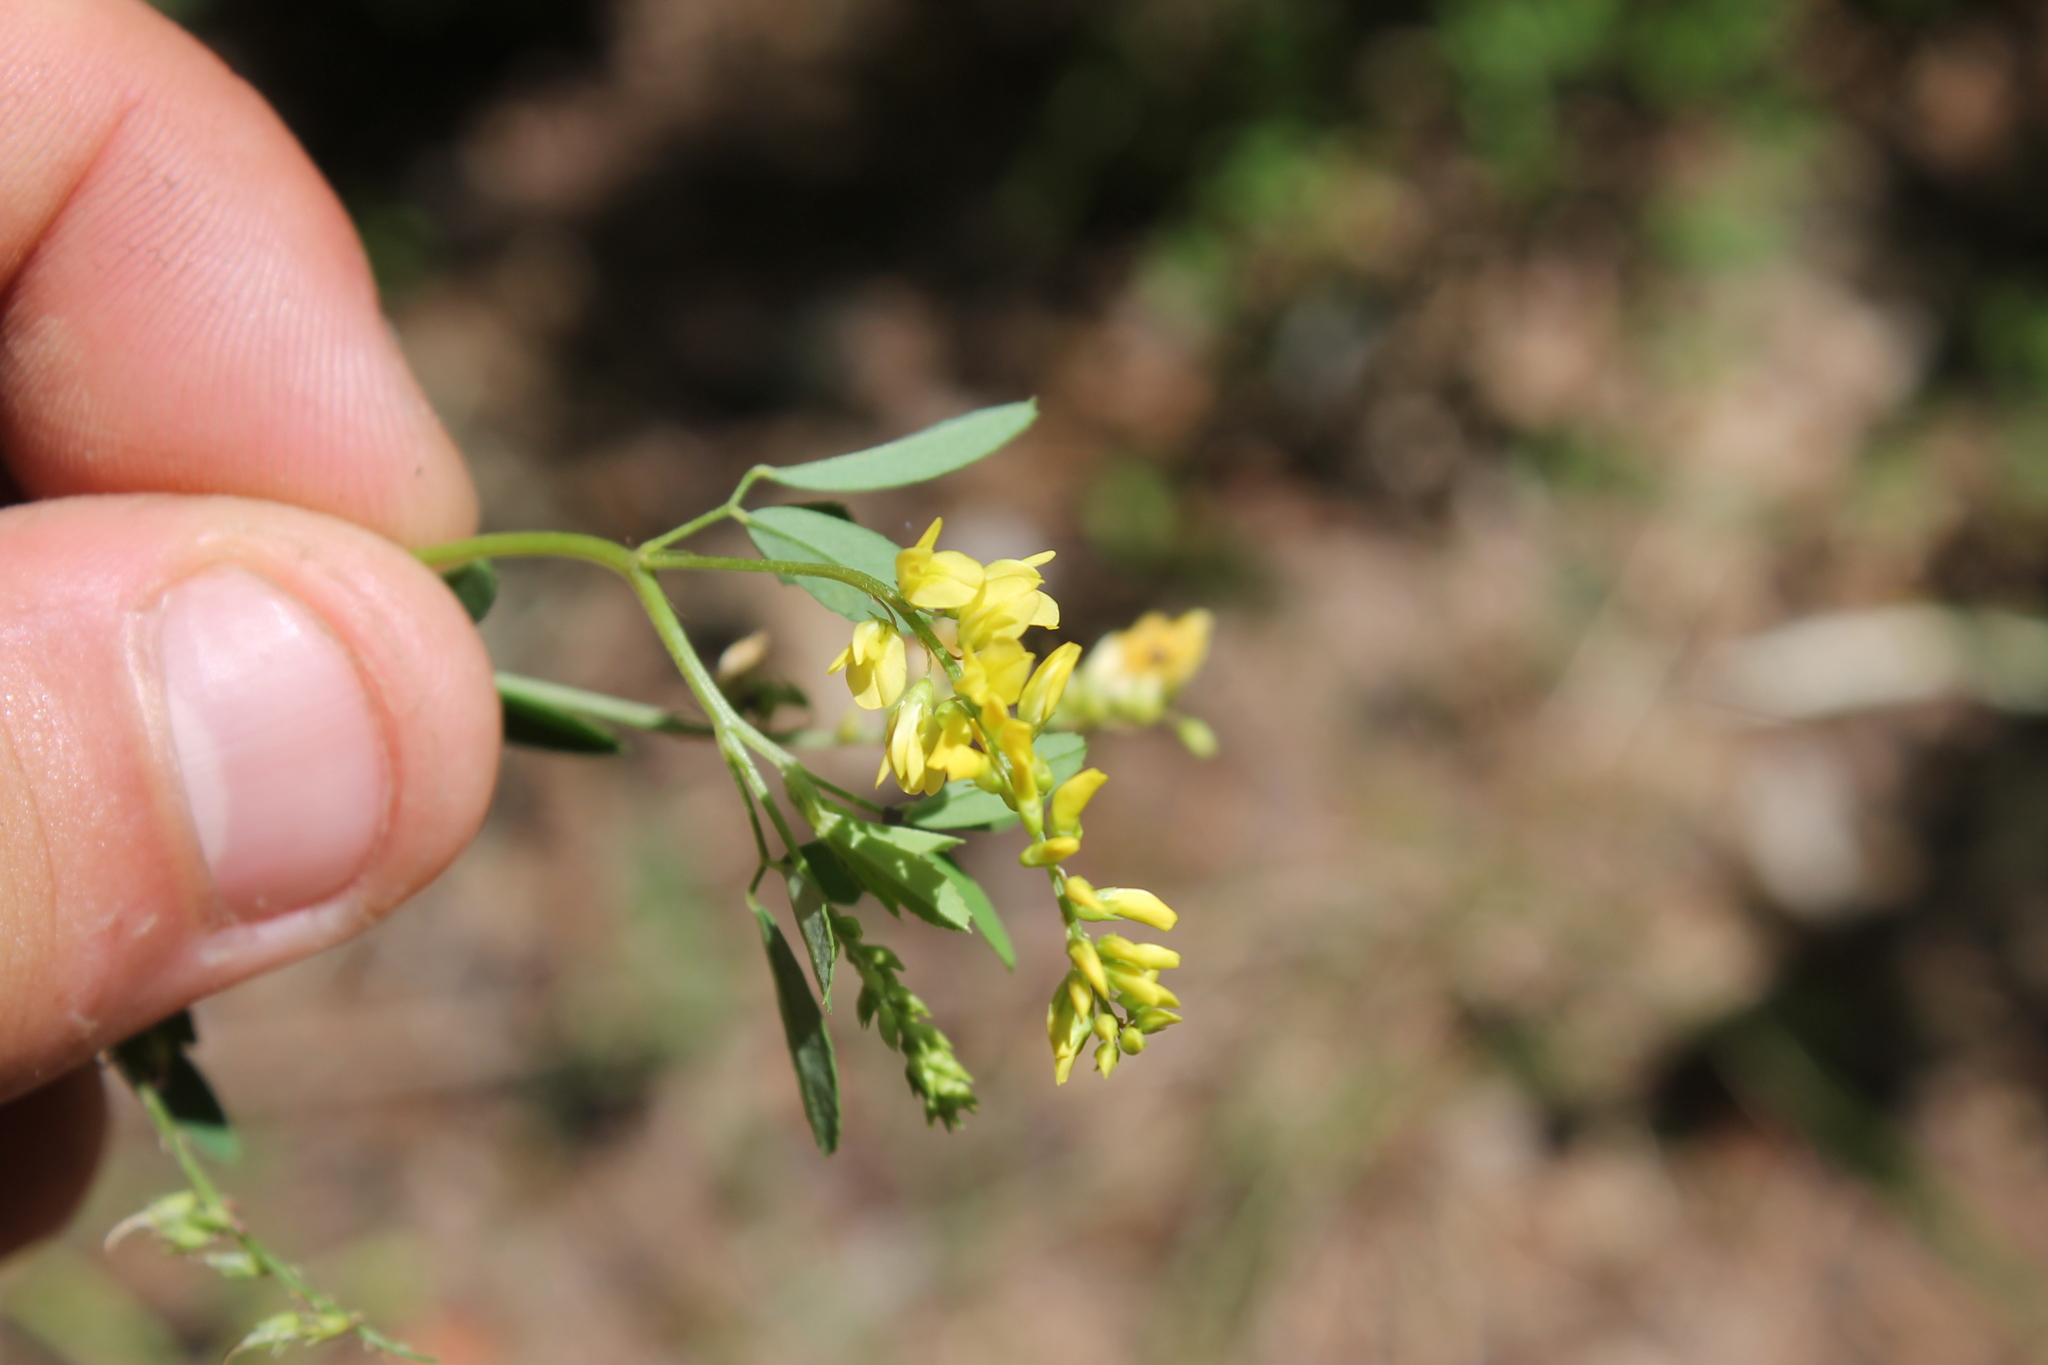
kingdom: Plantae
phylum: Tracheophyta
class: Magnoliopsida
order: Fabales
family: Fabaceae
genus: Melilotus
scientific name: Melilotus officinalis
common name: Sweetclover
